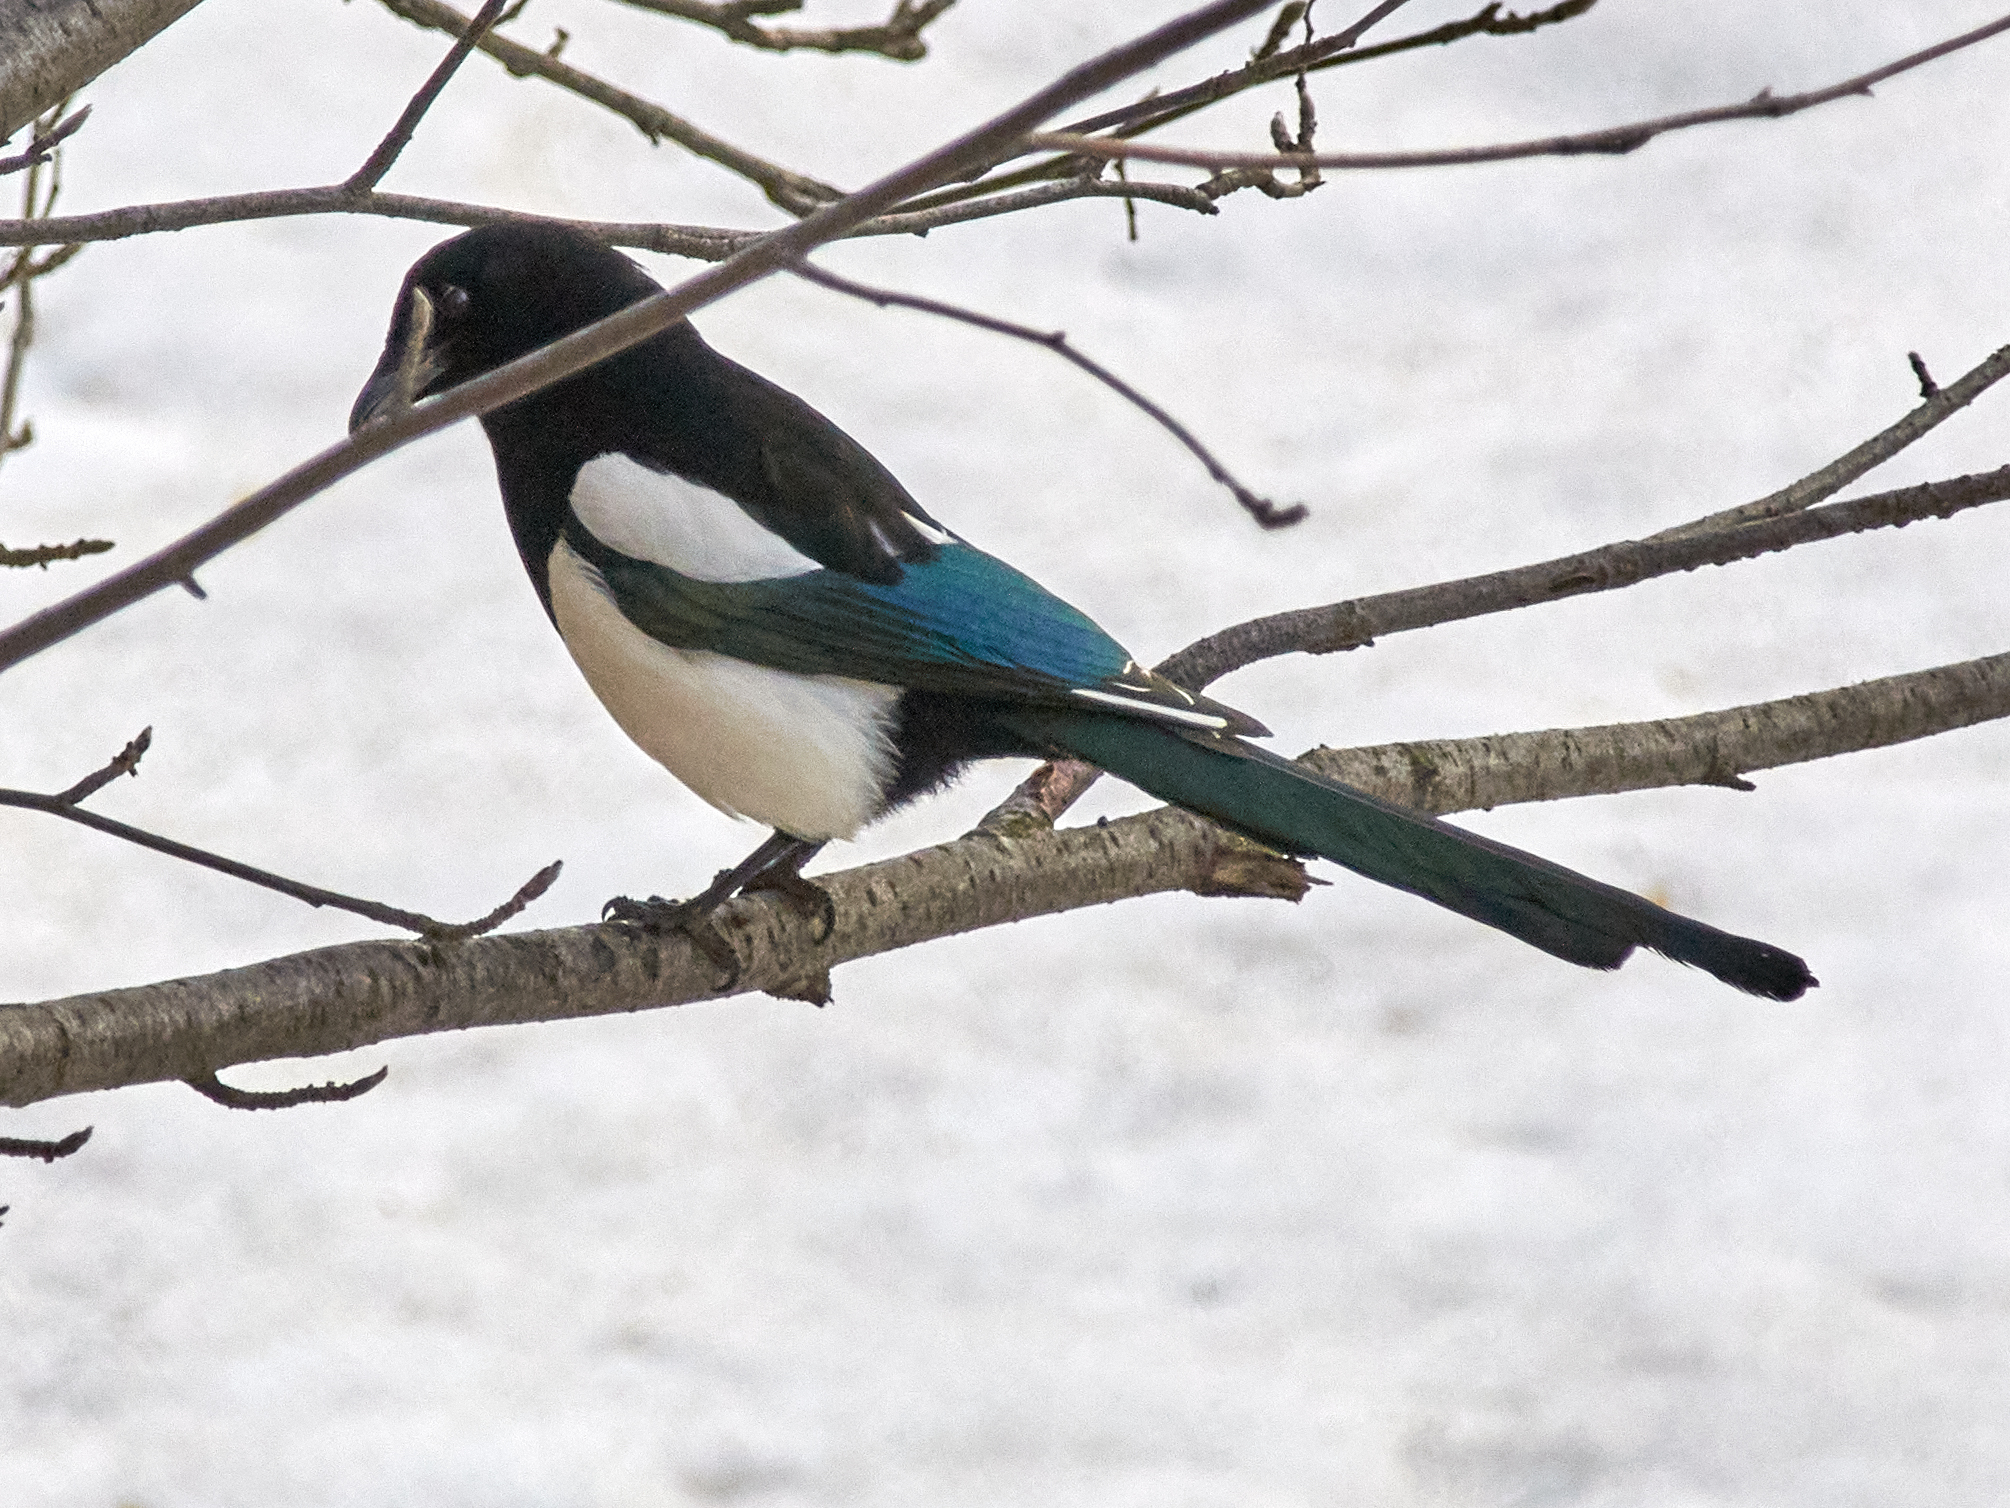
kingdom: Animalia
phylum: Chordata
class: Aves
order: Passeriformes
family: Corvidae
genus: Pica
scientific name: Pica pica
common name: Eurasian magpie
